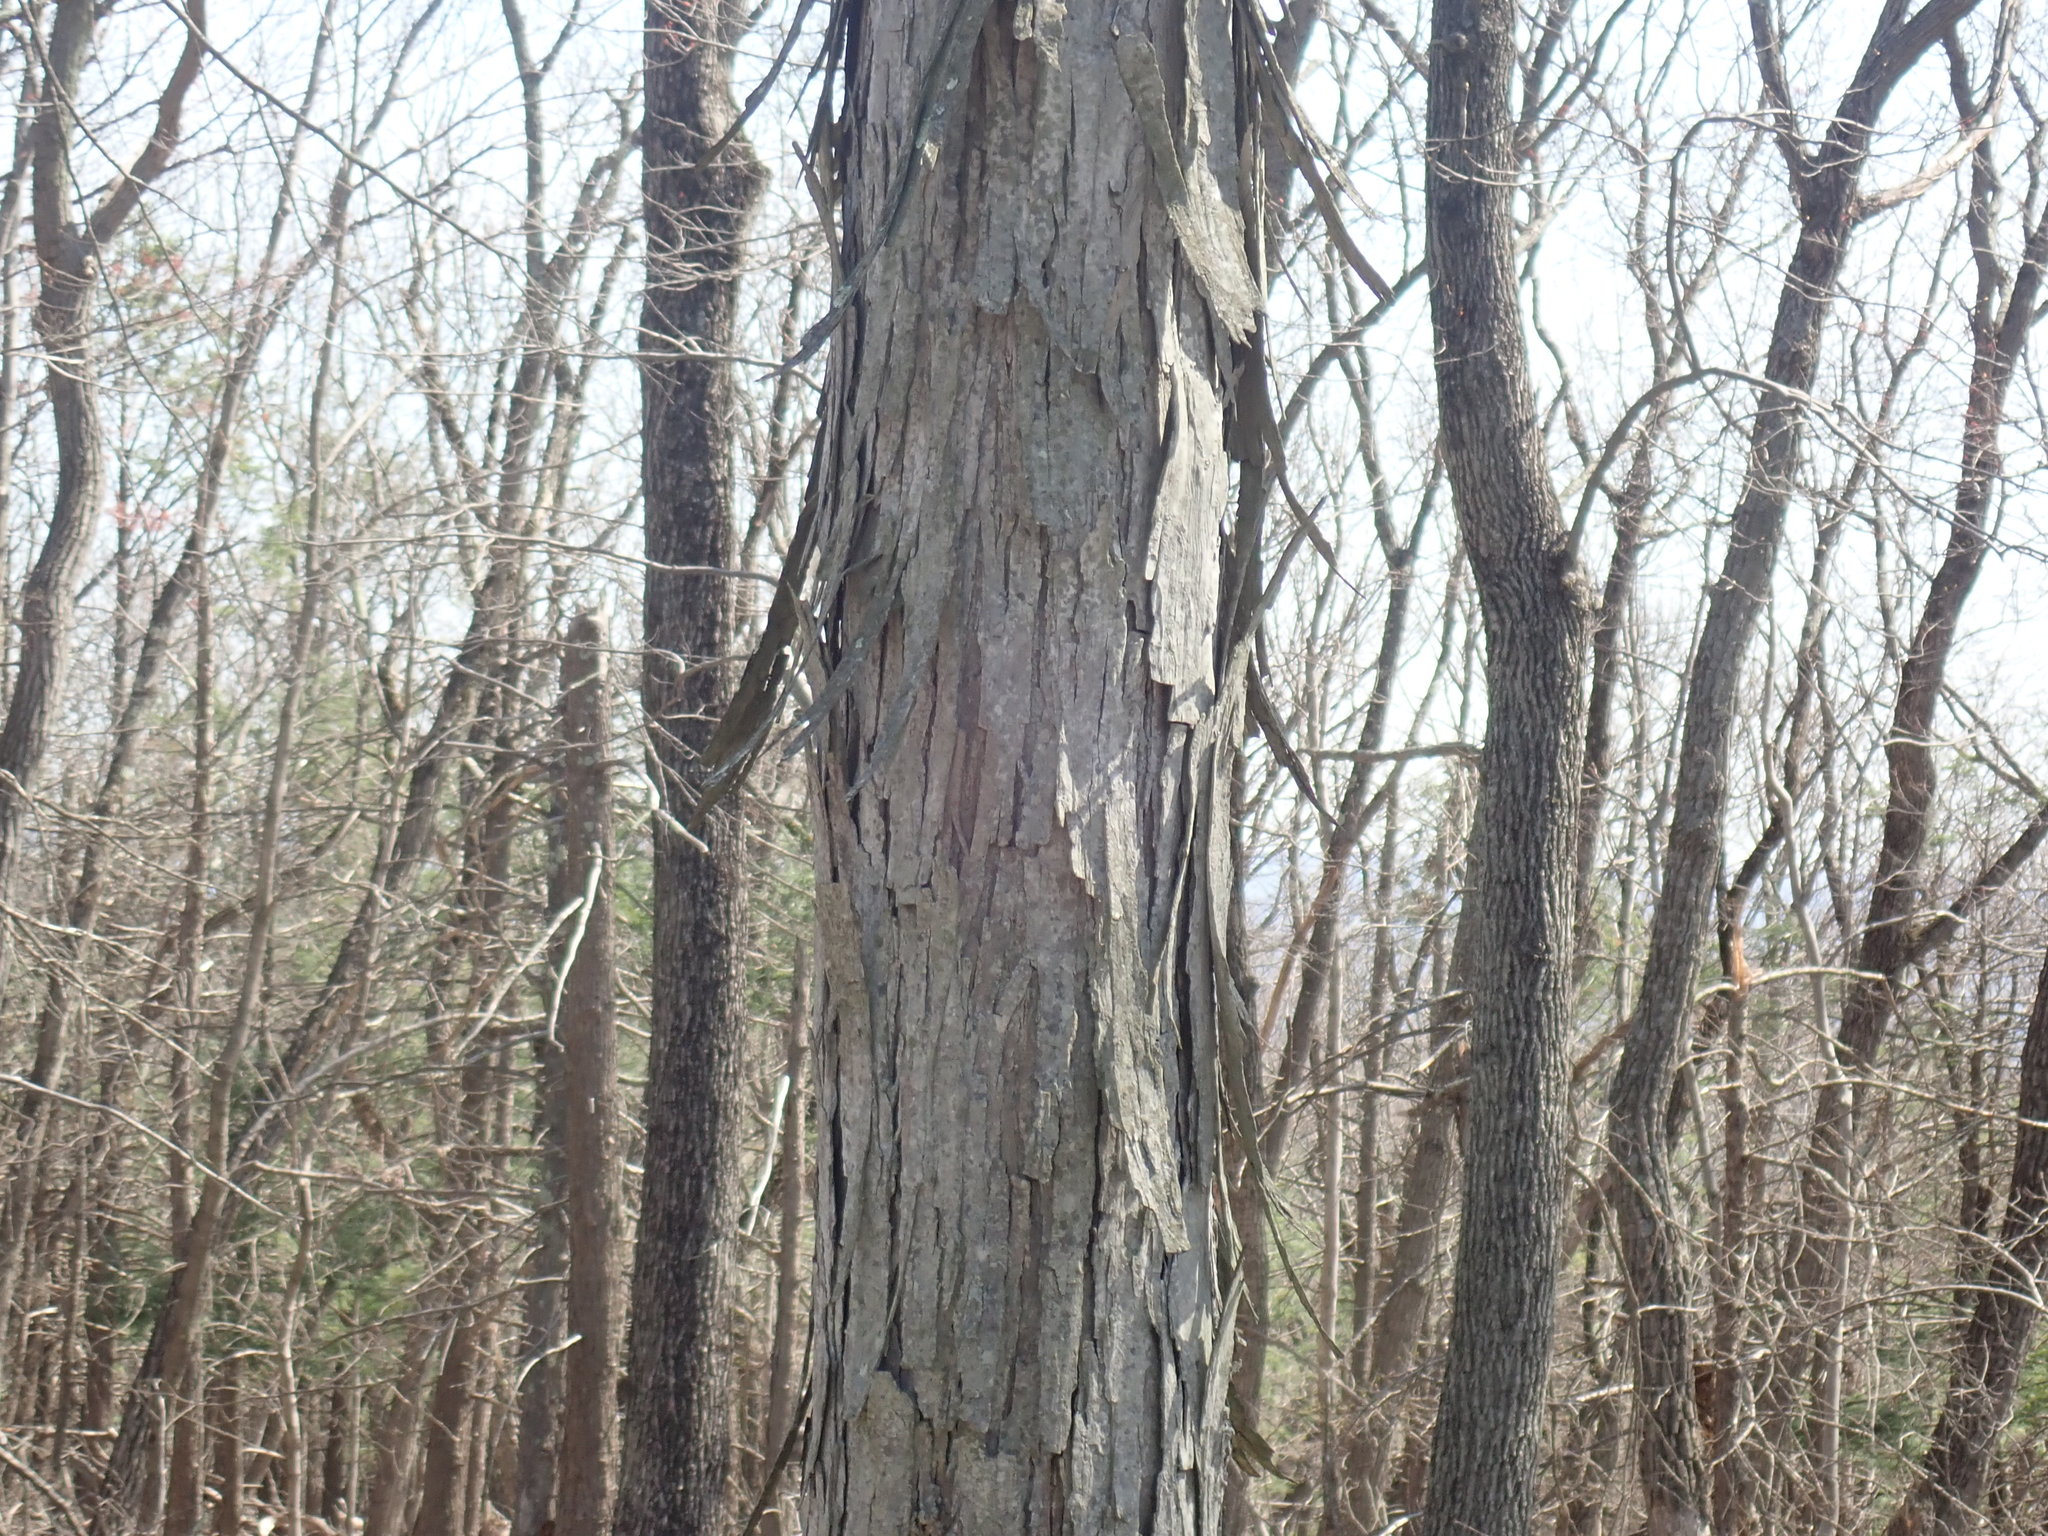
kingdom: Plantae
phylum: Tracheophyta
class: Magnoliopsida
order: Fagales
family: Juglandaceae
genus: Carya
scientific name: Carya ovata
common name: Shagbark hickory
